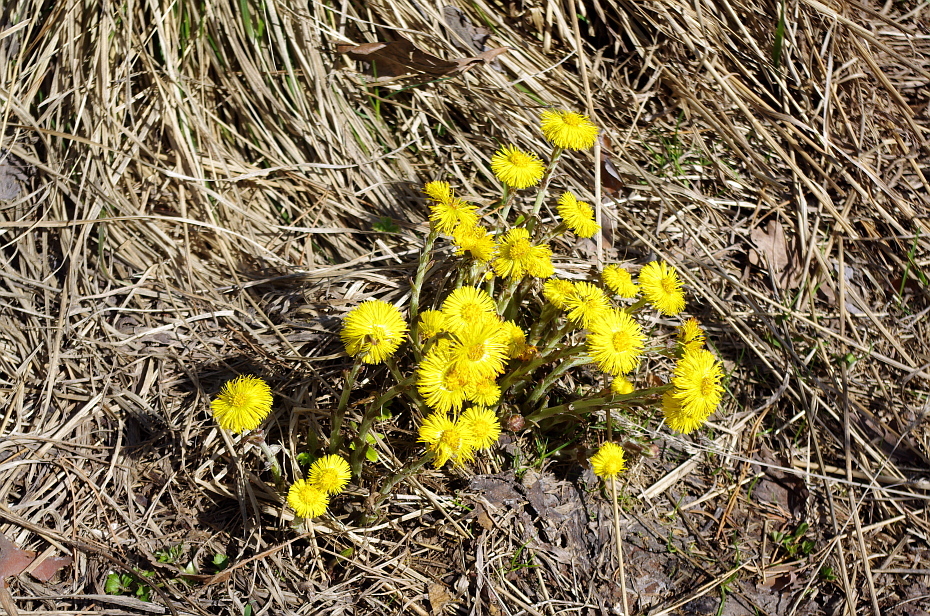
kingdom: Plantae
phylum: Tracheophyta
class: Magnoliopsida
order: Asterales
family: Asteraceae
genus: Tussilago
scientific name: Tussilago farfara
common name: Coltsfoot
